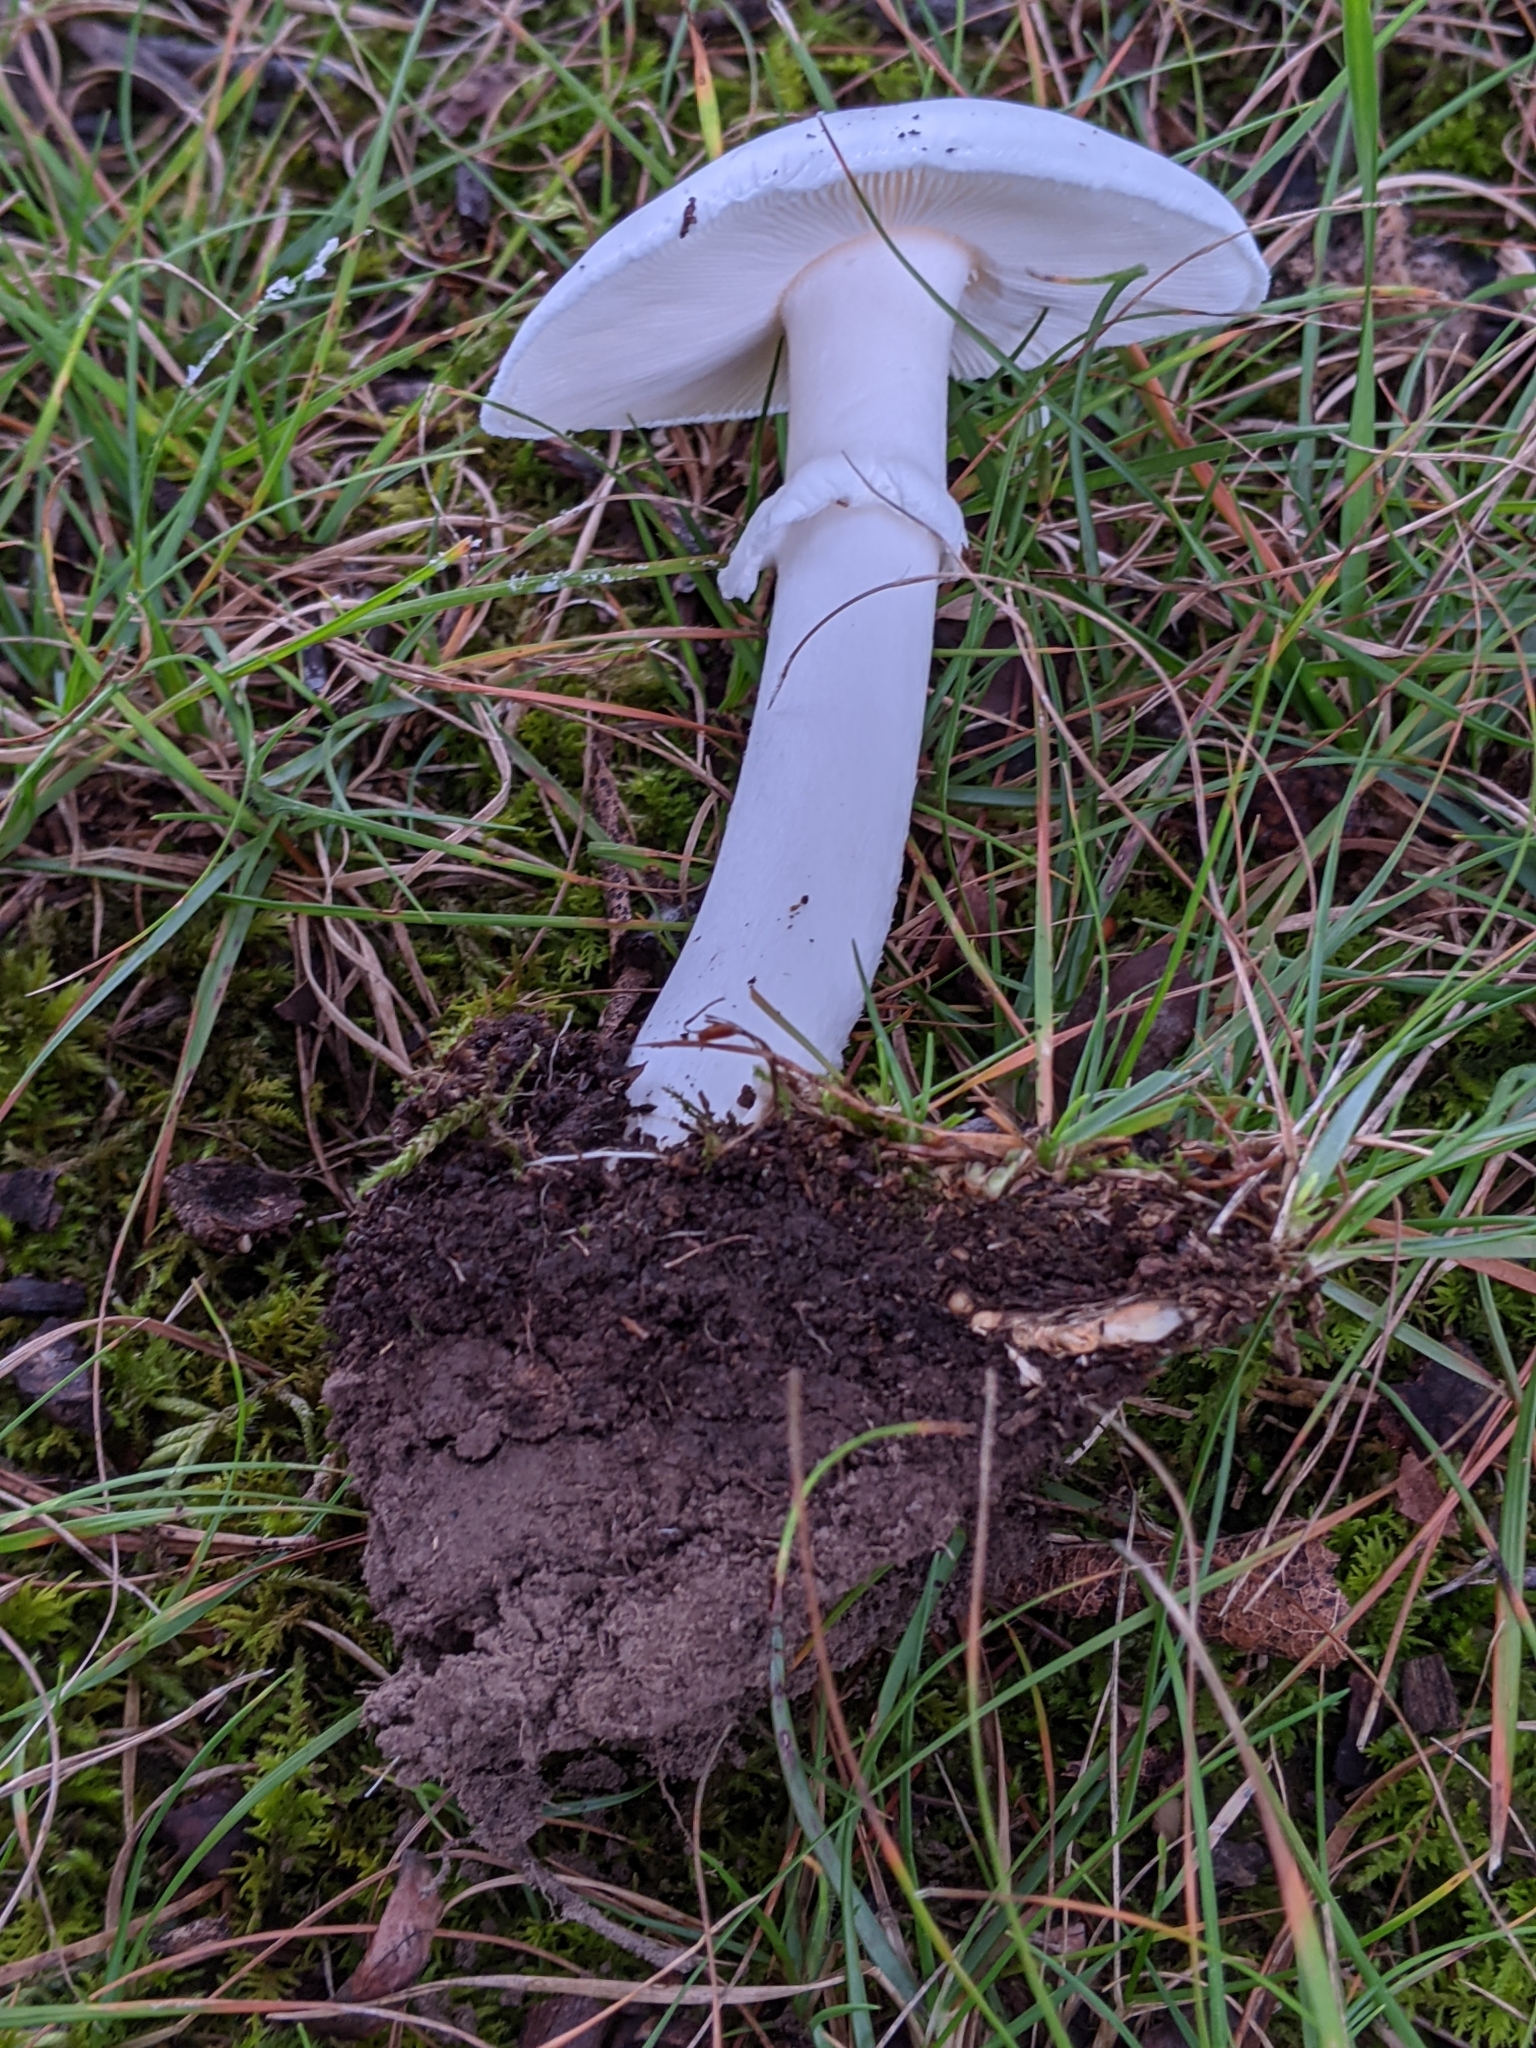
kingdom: Fungi
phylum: Basidiomycota
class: Agaricomycetes
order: Agaricales
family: Amanitaceae
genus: Amanita
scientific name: Amanita bisporigera
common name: Eastern north american destroying angel
